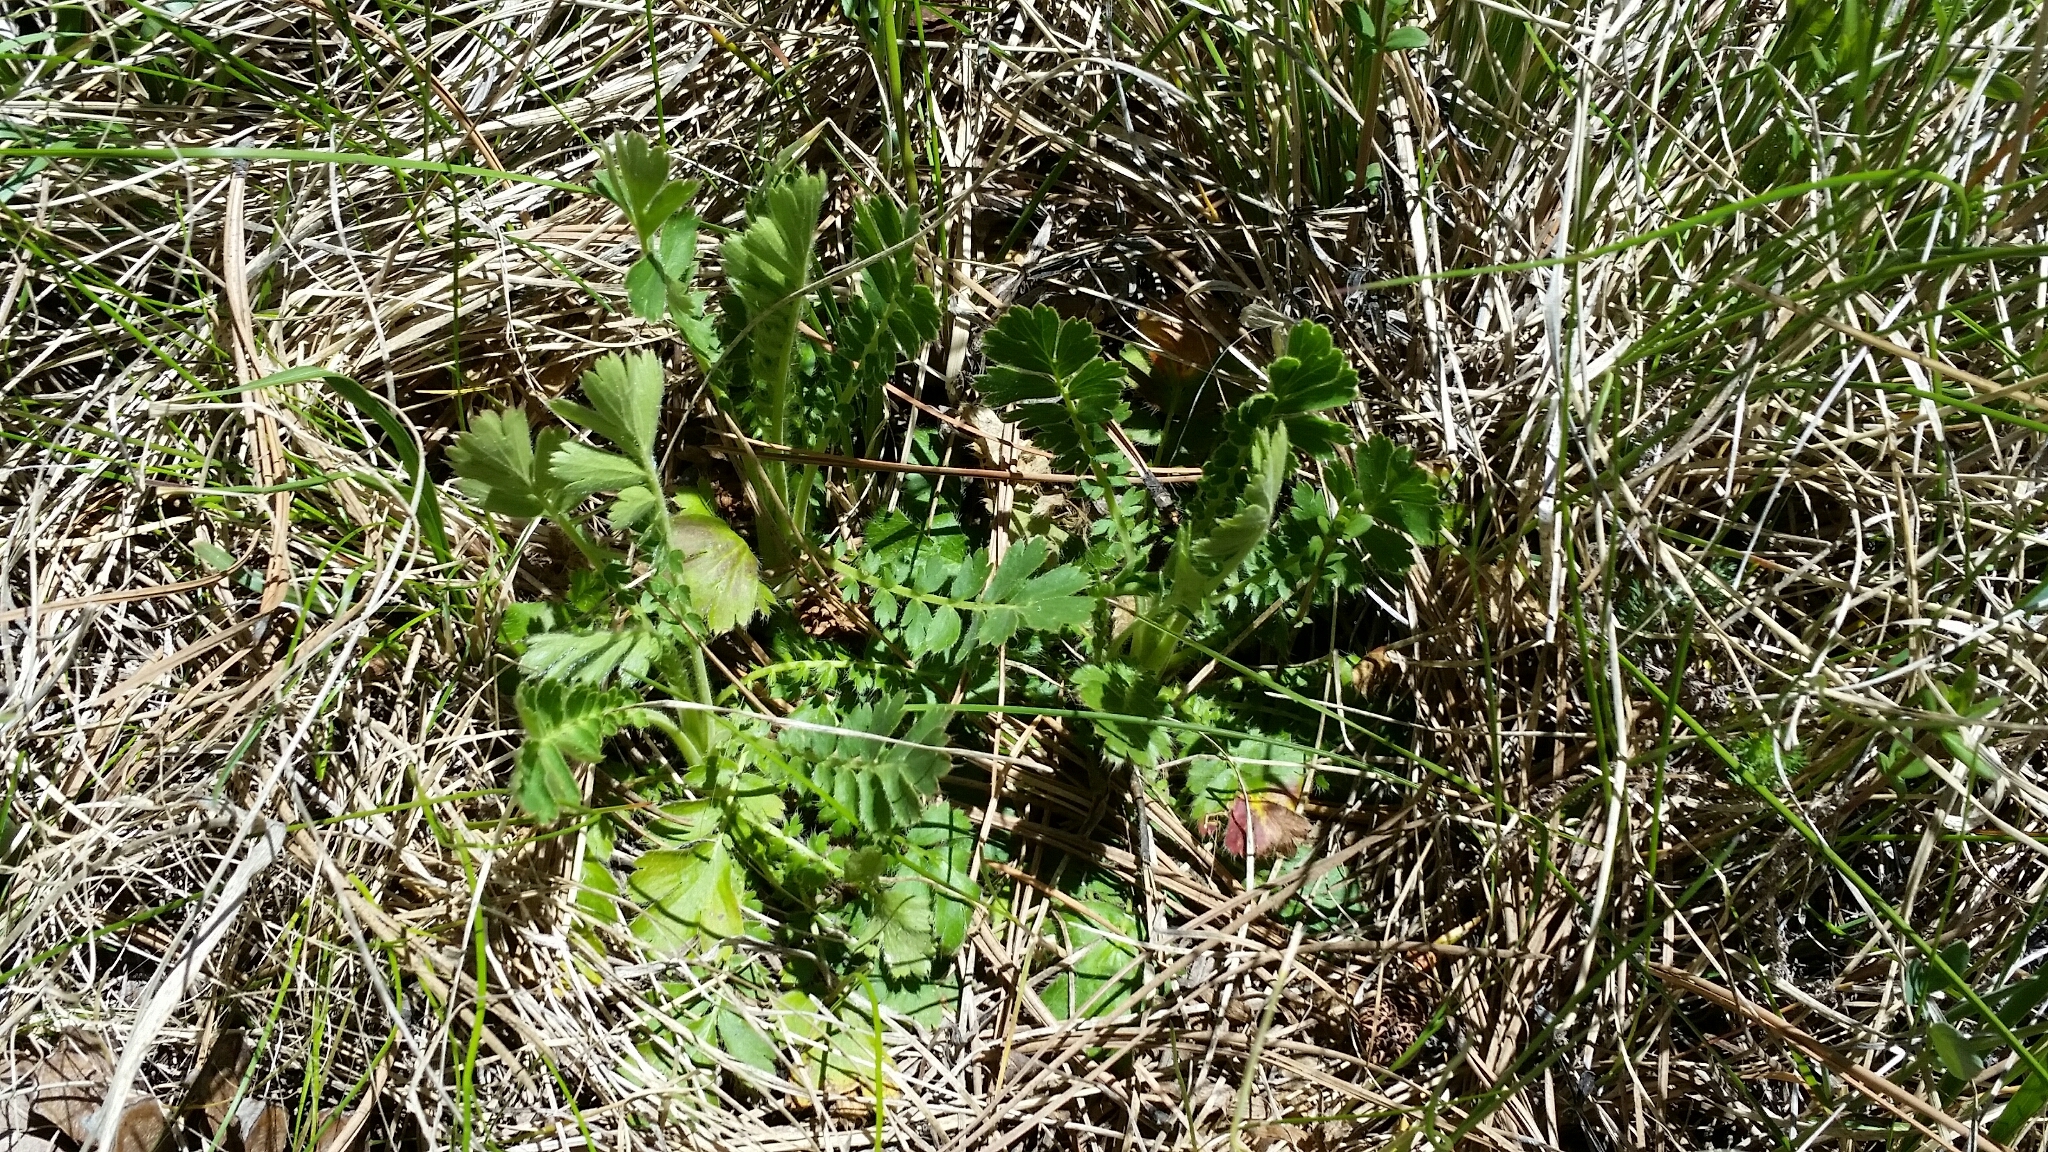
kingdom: Plantae
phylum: Tracheophyta
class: Magnoliopsida
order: Rosales
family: Rosaceae
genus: Geum
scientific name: Geum triflorum
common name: Old man's whiskers
